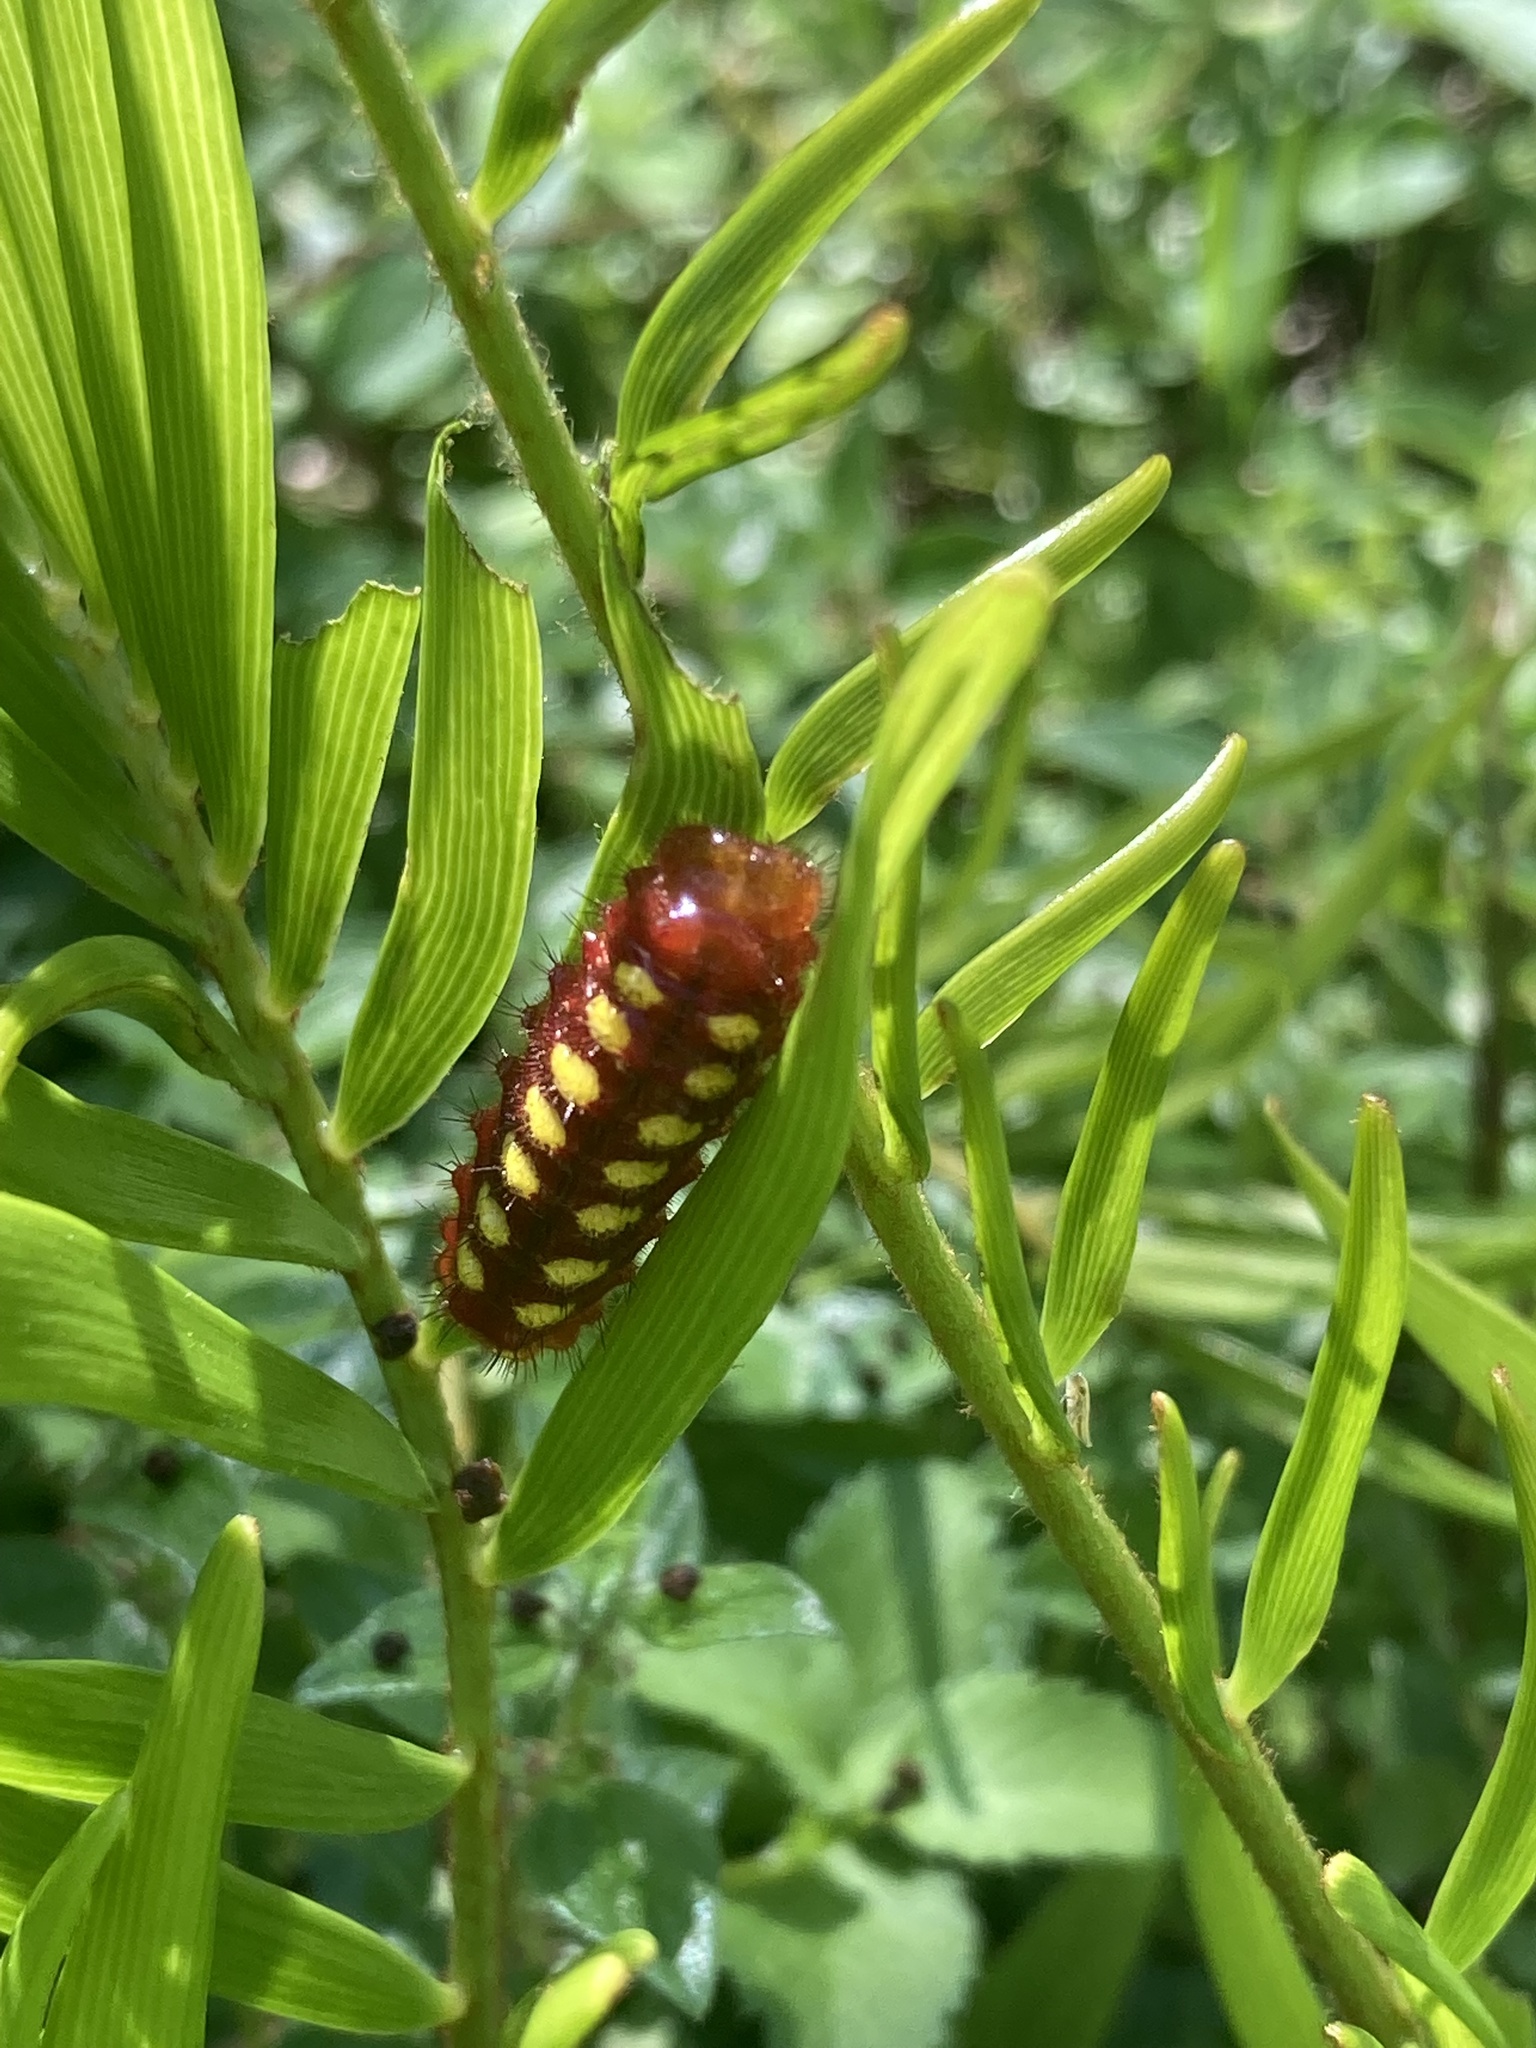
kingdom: Animalia
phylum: Arthropoda
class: Insecta
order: Lepidoptera
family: Lycaenidae
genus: Eumaeus
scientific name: Eumaeus atala
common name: Atala
